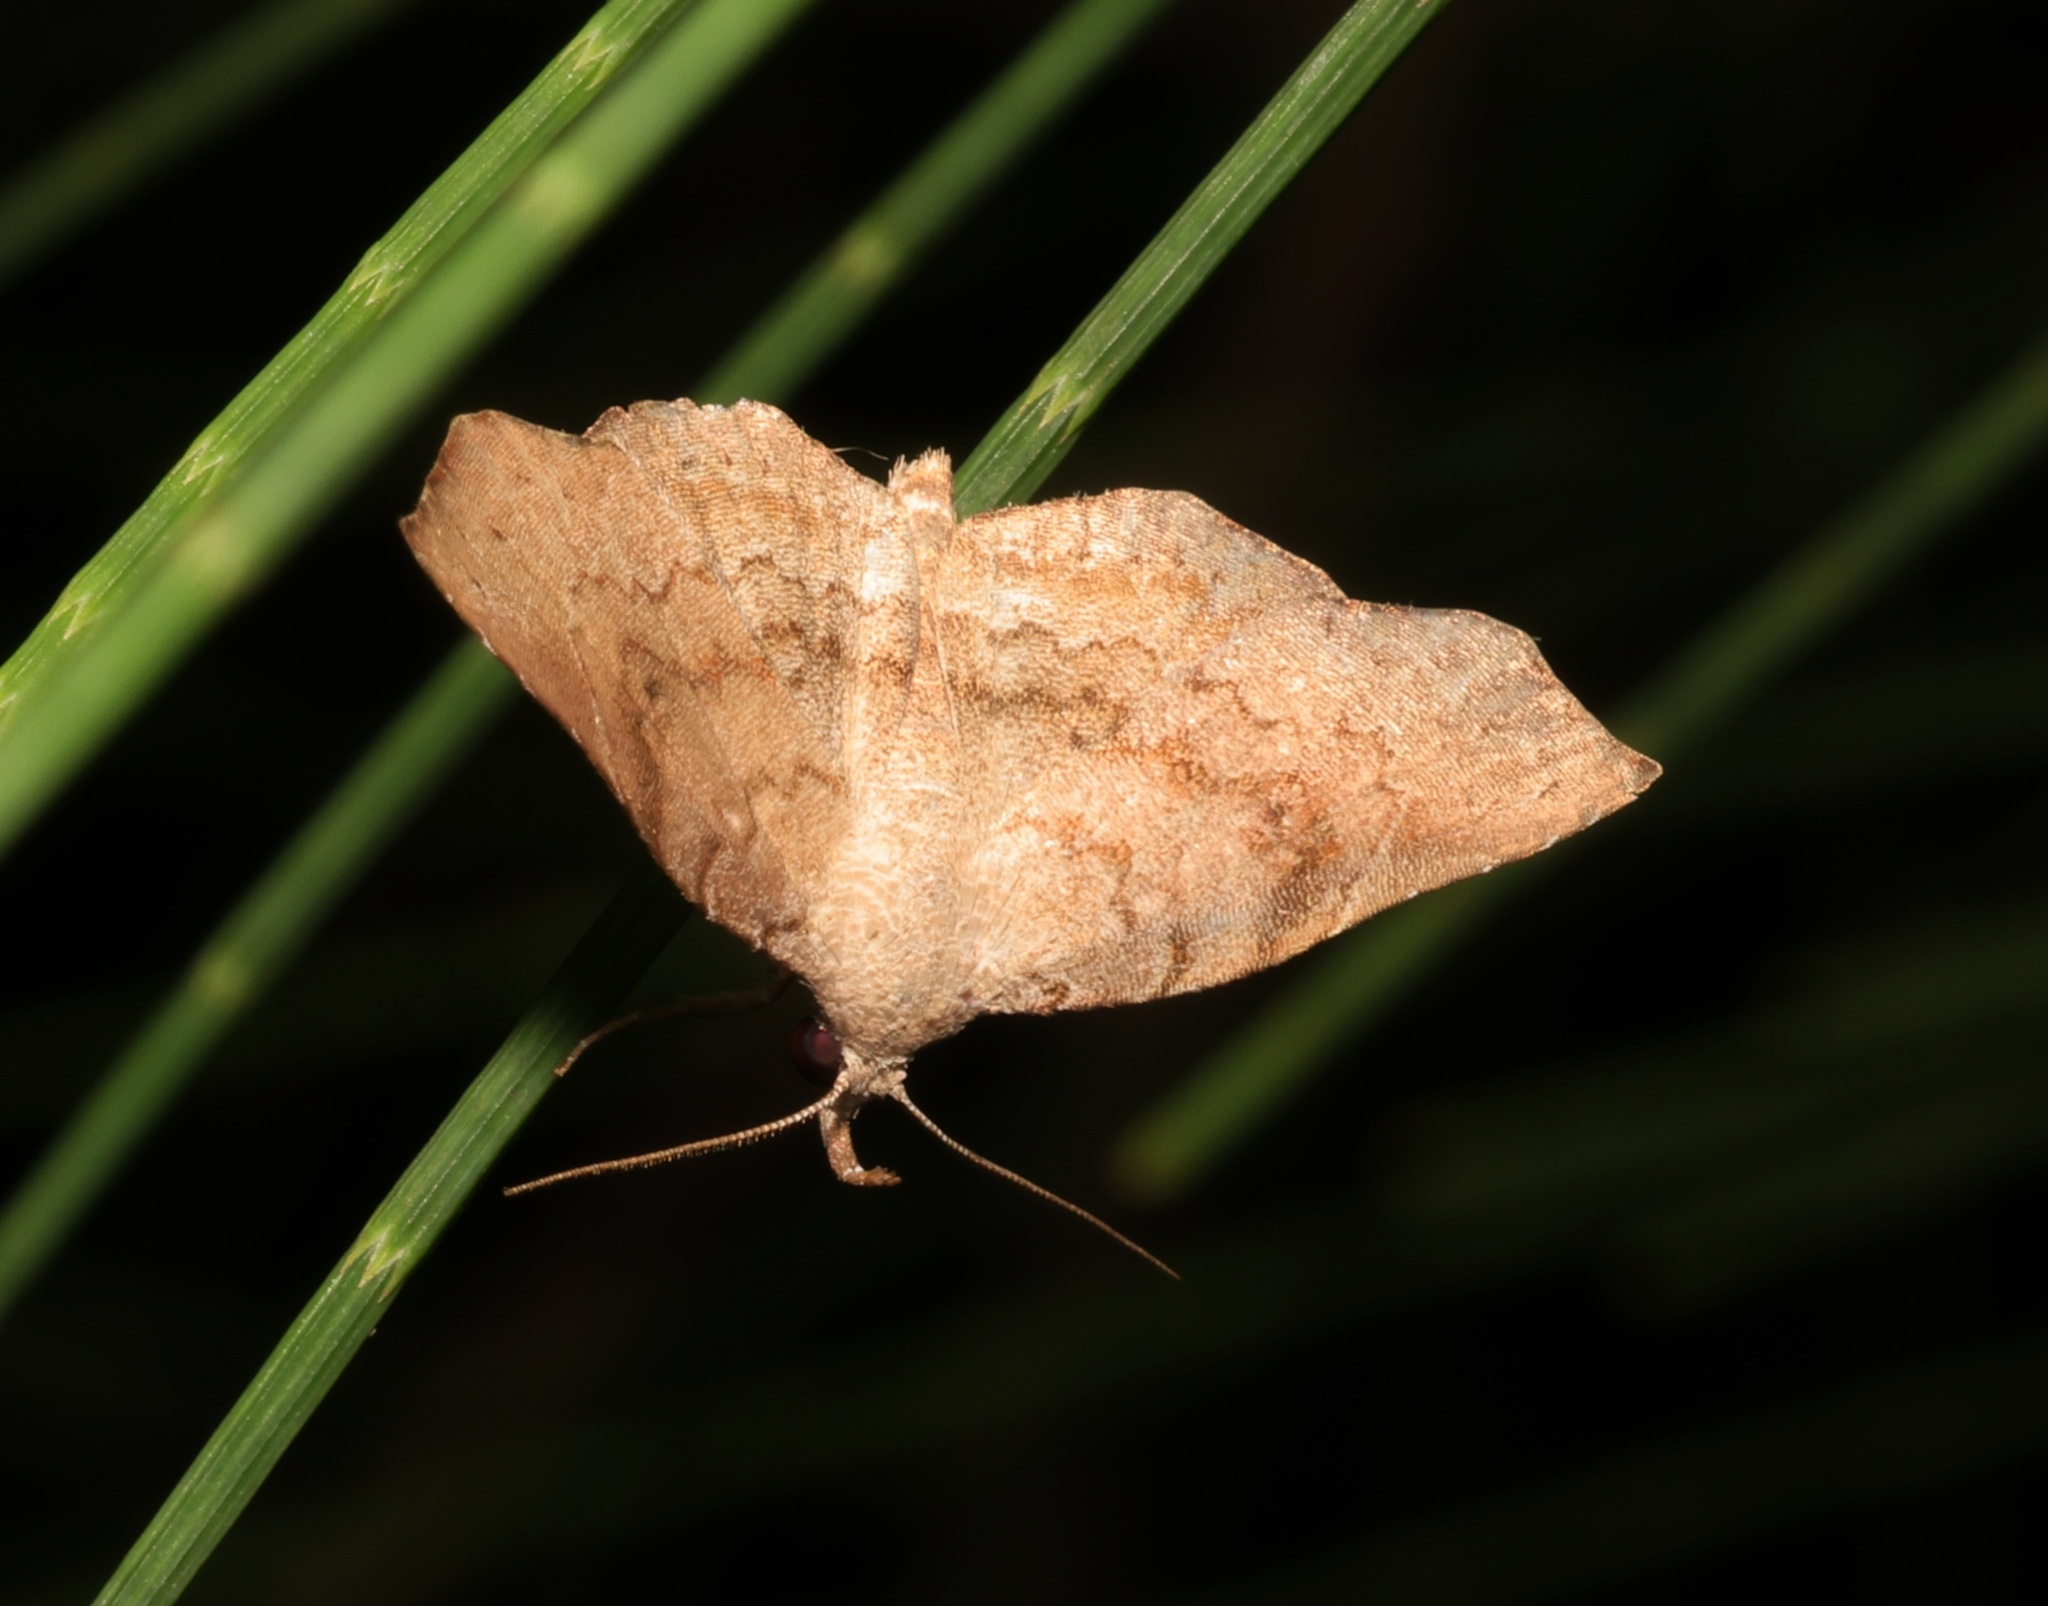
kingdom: Animalia
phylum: Arthropoda
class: Insecta
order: Lepidoptera
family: Erebidae
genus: Egnasia
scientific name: Egnasia seclusalis
